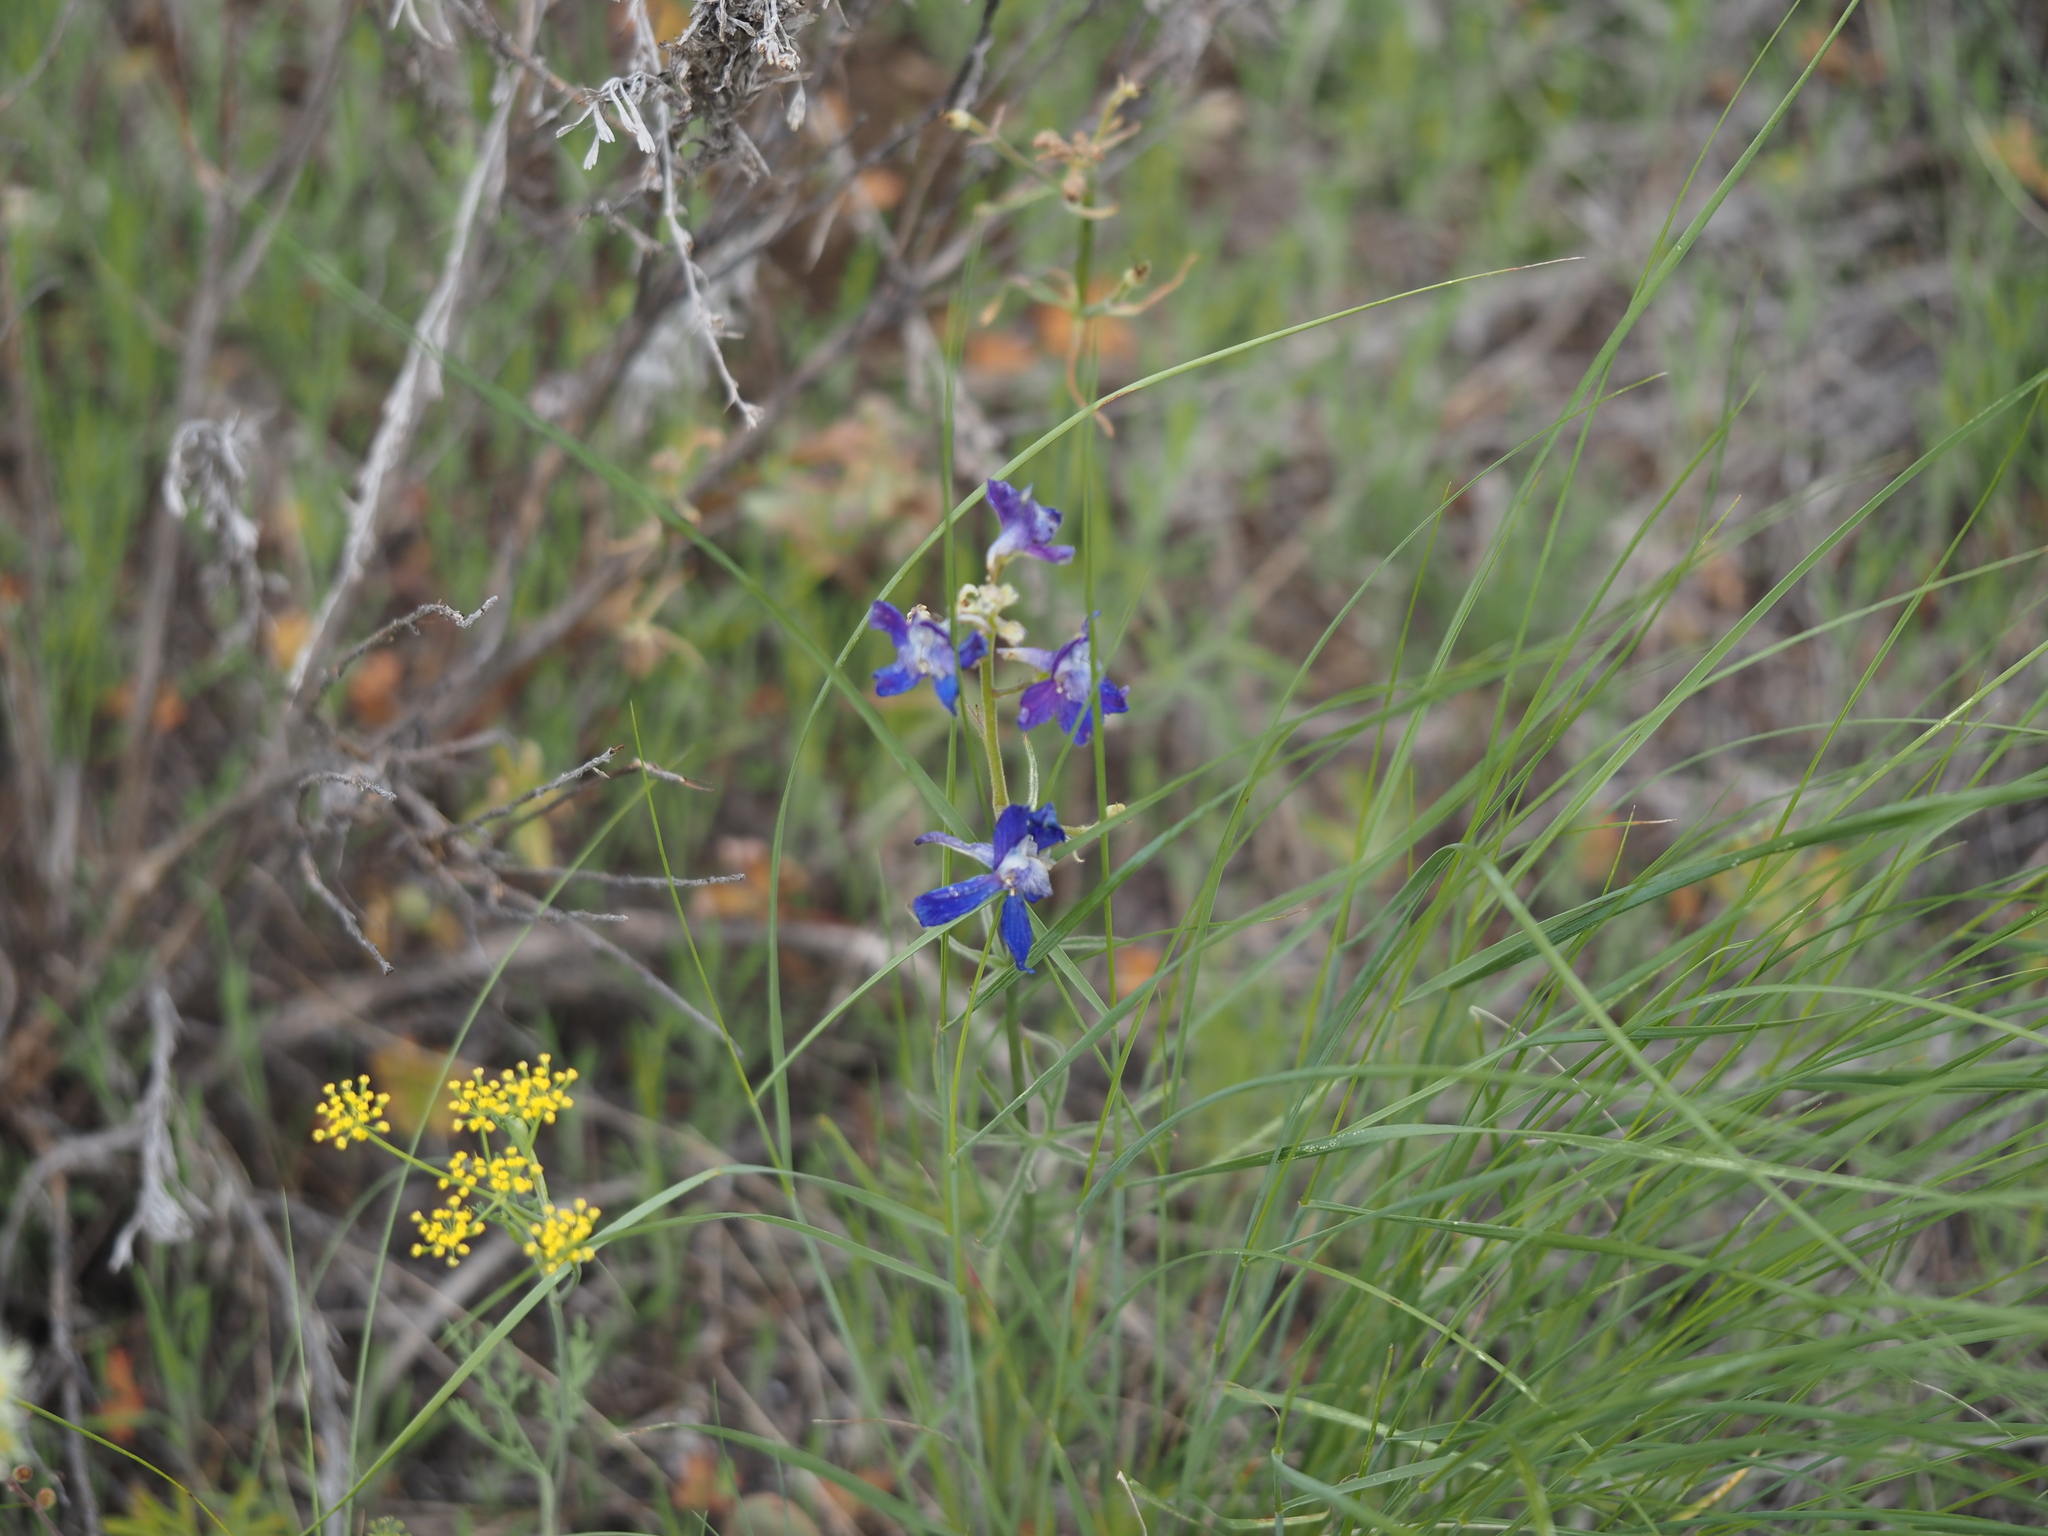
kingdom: Plantae
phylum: Tracheophyta
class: Magnoliopsida
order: Ranunculales
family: Ranunculaceae
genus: Delphinium
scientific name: Delphinium nuttallianum
